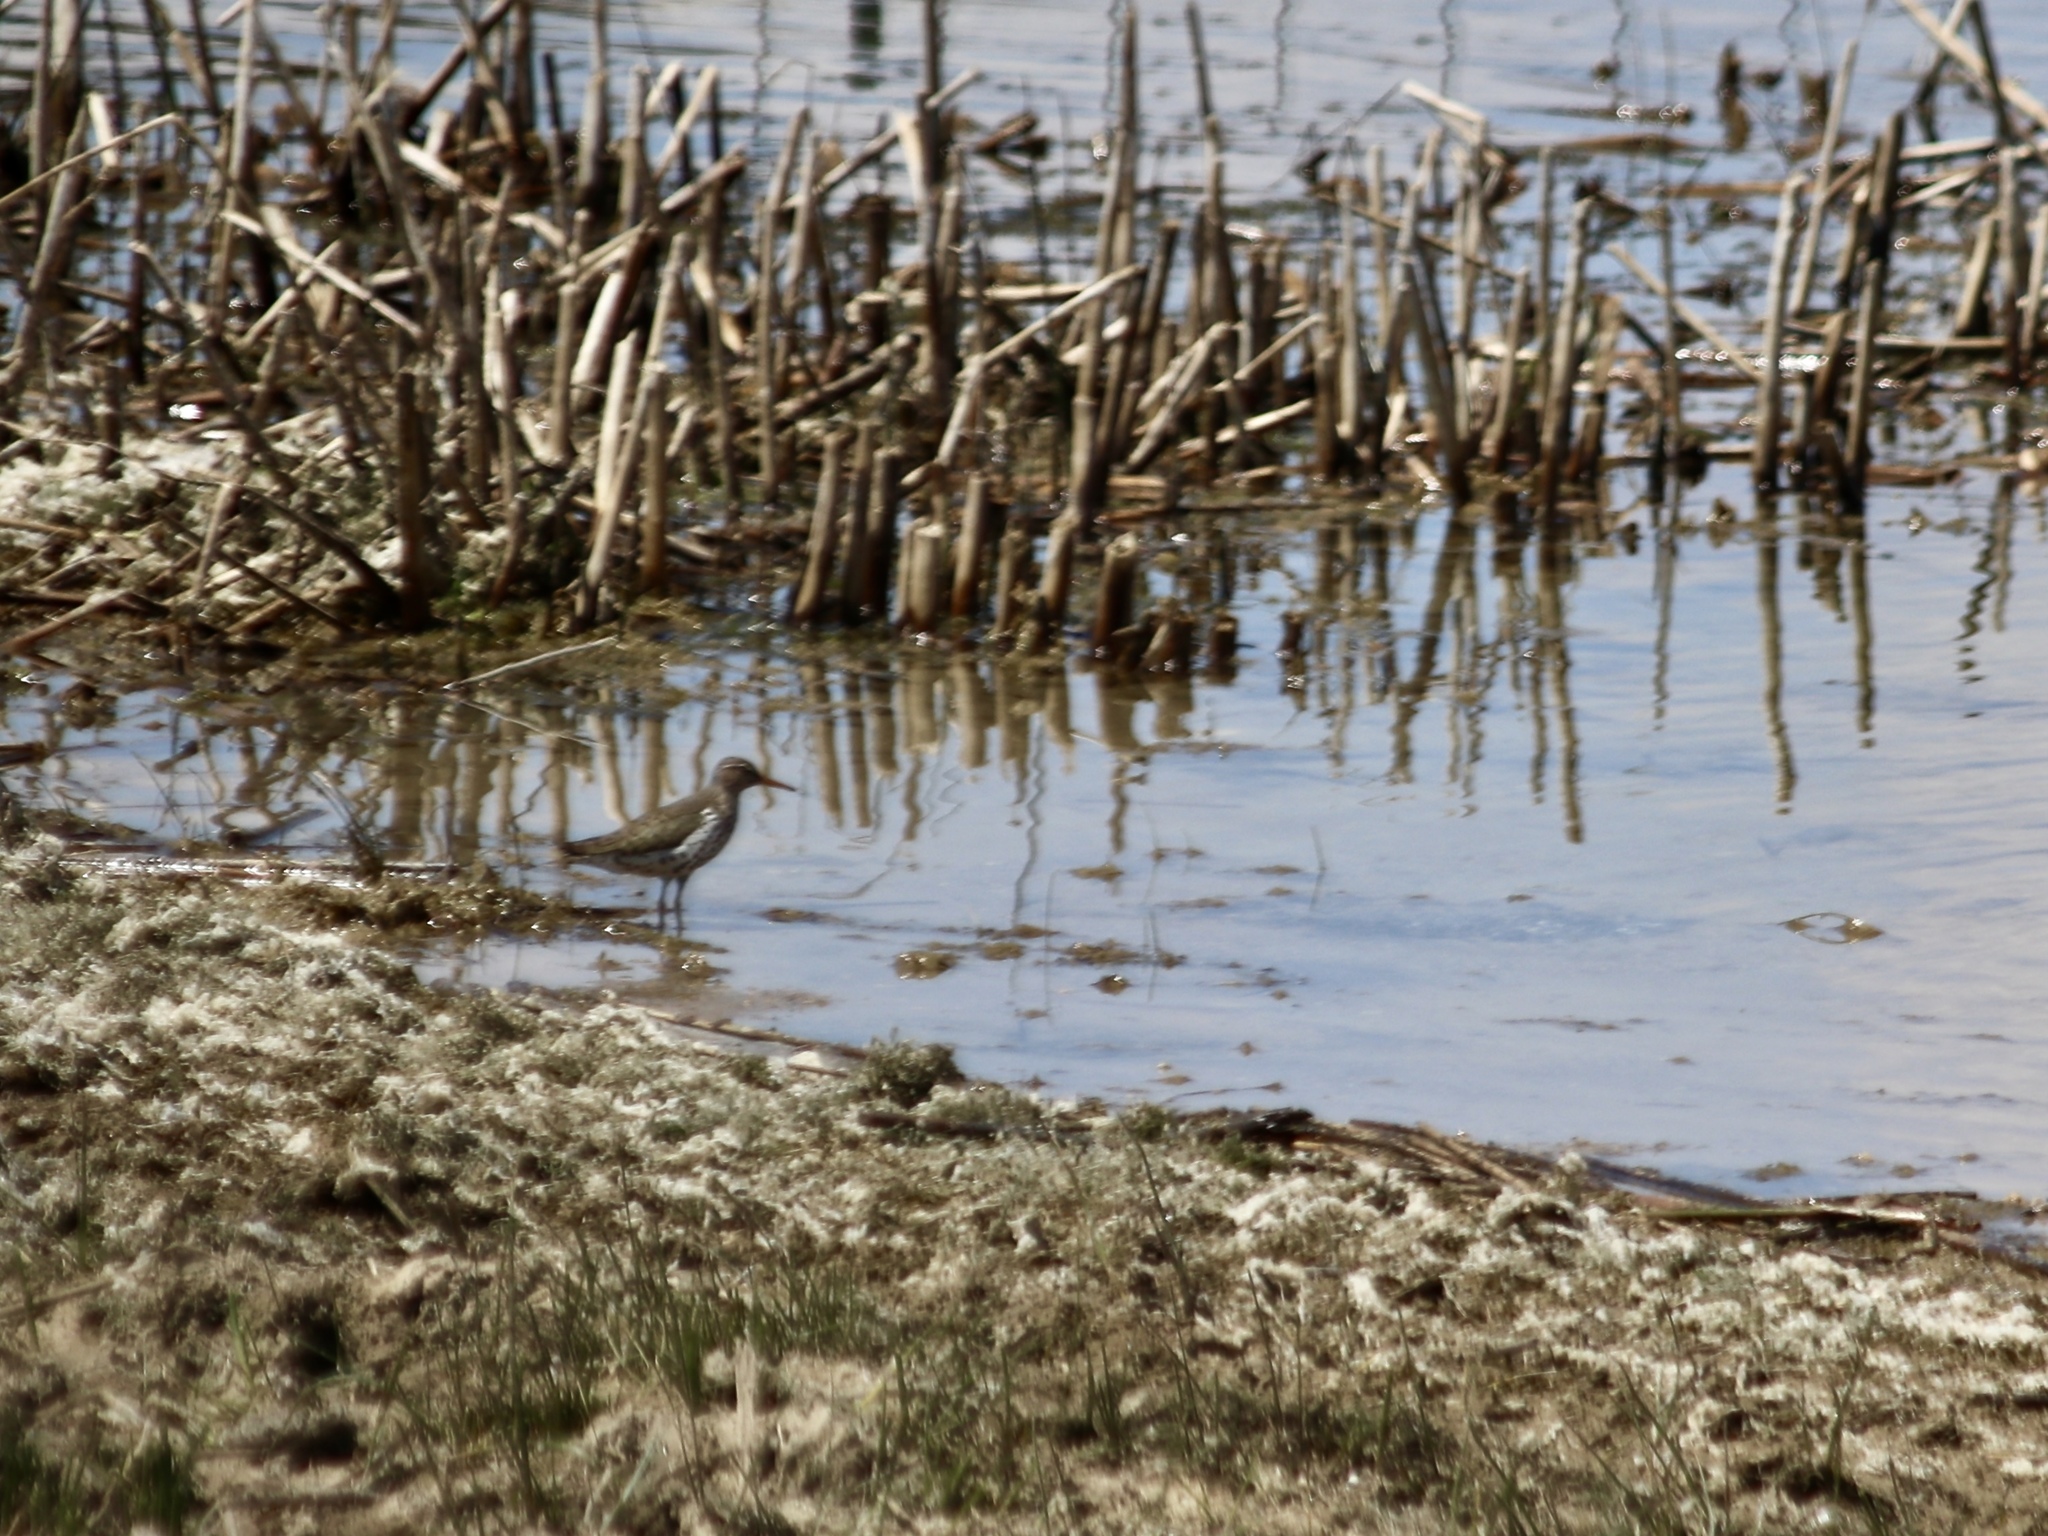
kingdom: Animalia
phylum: Chordata
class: Aves
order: Charadriiformes
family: Scolopacidae
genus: Actitis
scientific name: Actitis macularius
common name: Spotted sandpiper
